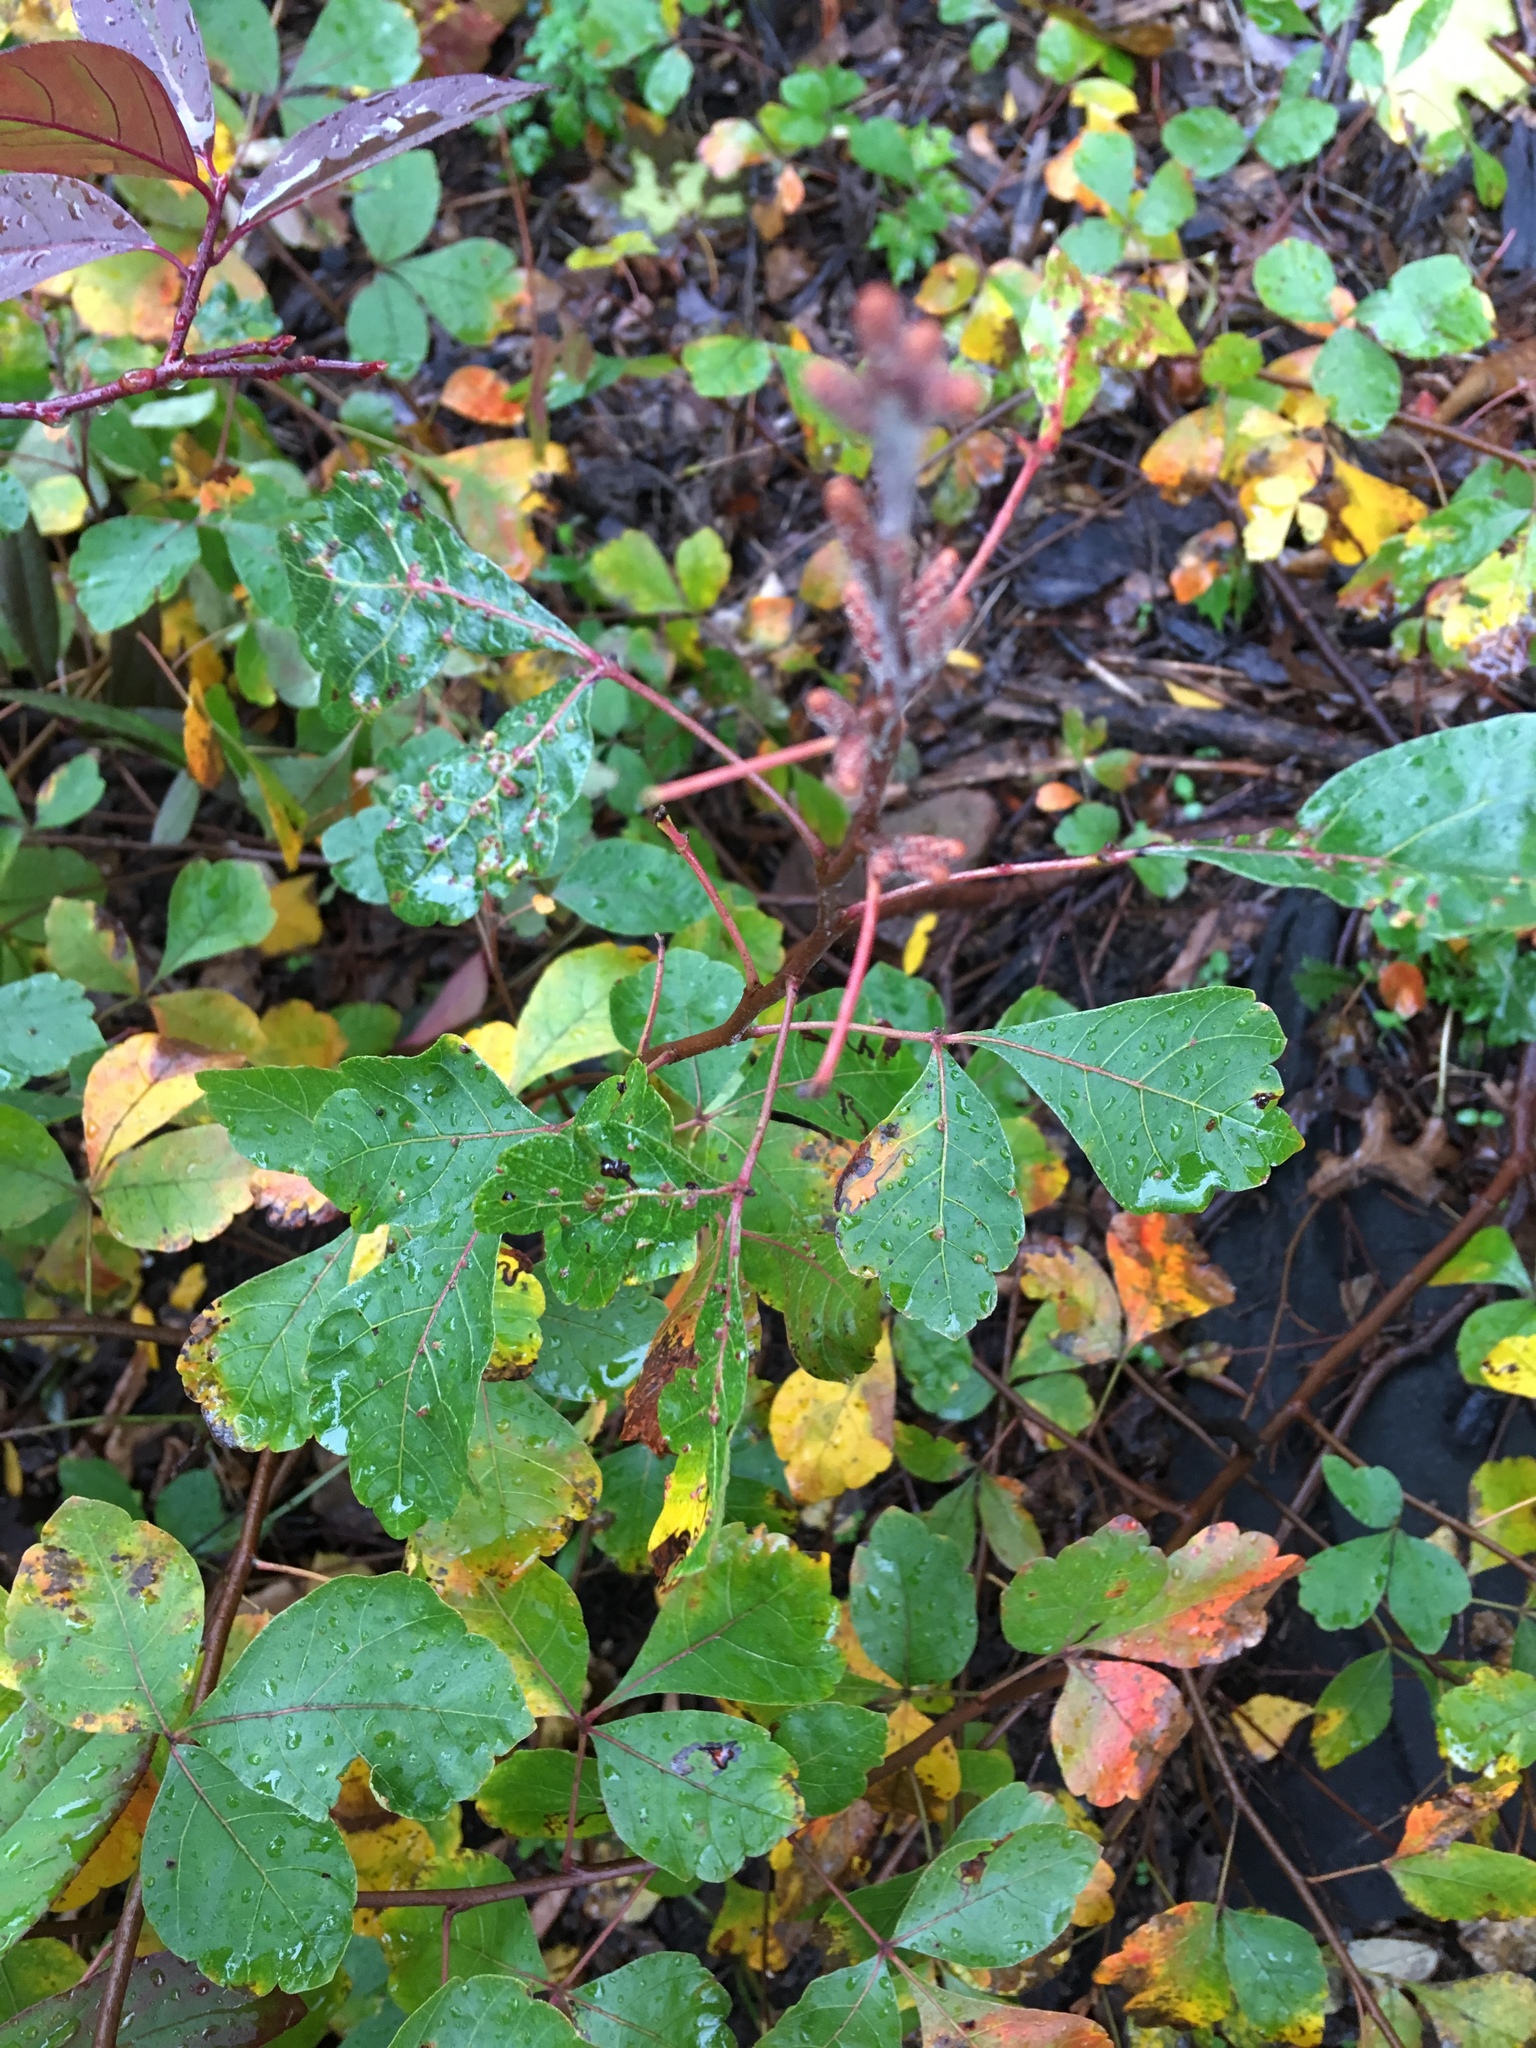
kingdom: Plantae
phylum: Tracheophyta
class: Magnoliopsida
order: Sapindales
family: Anacardiaceae
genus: Rhus
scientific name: Rhus aromatica
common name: Aromatic sumac
